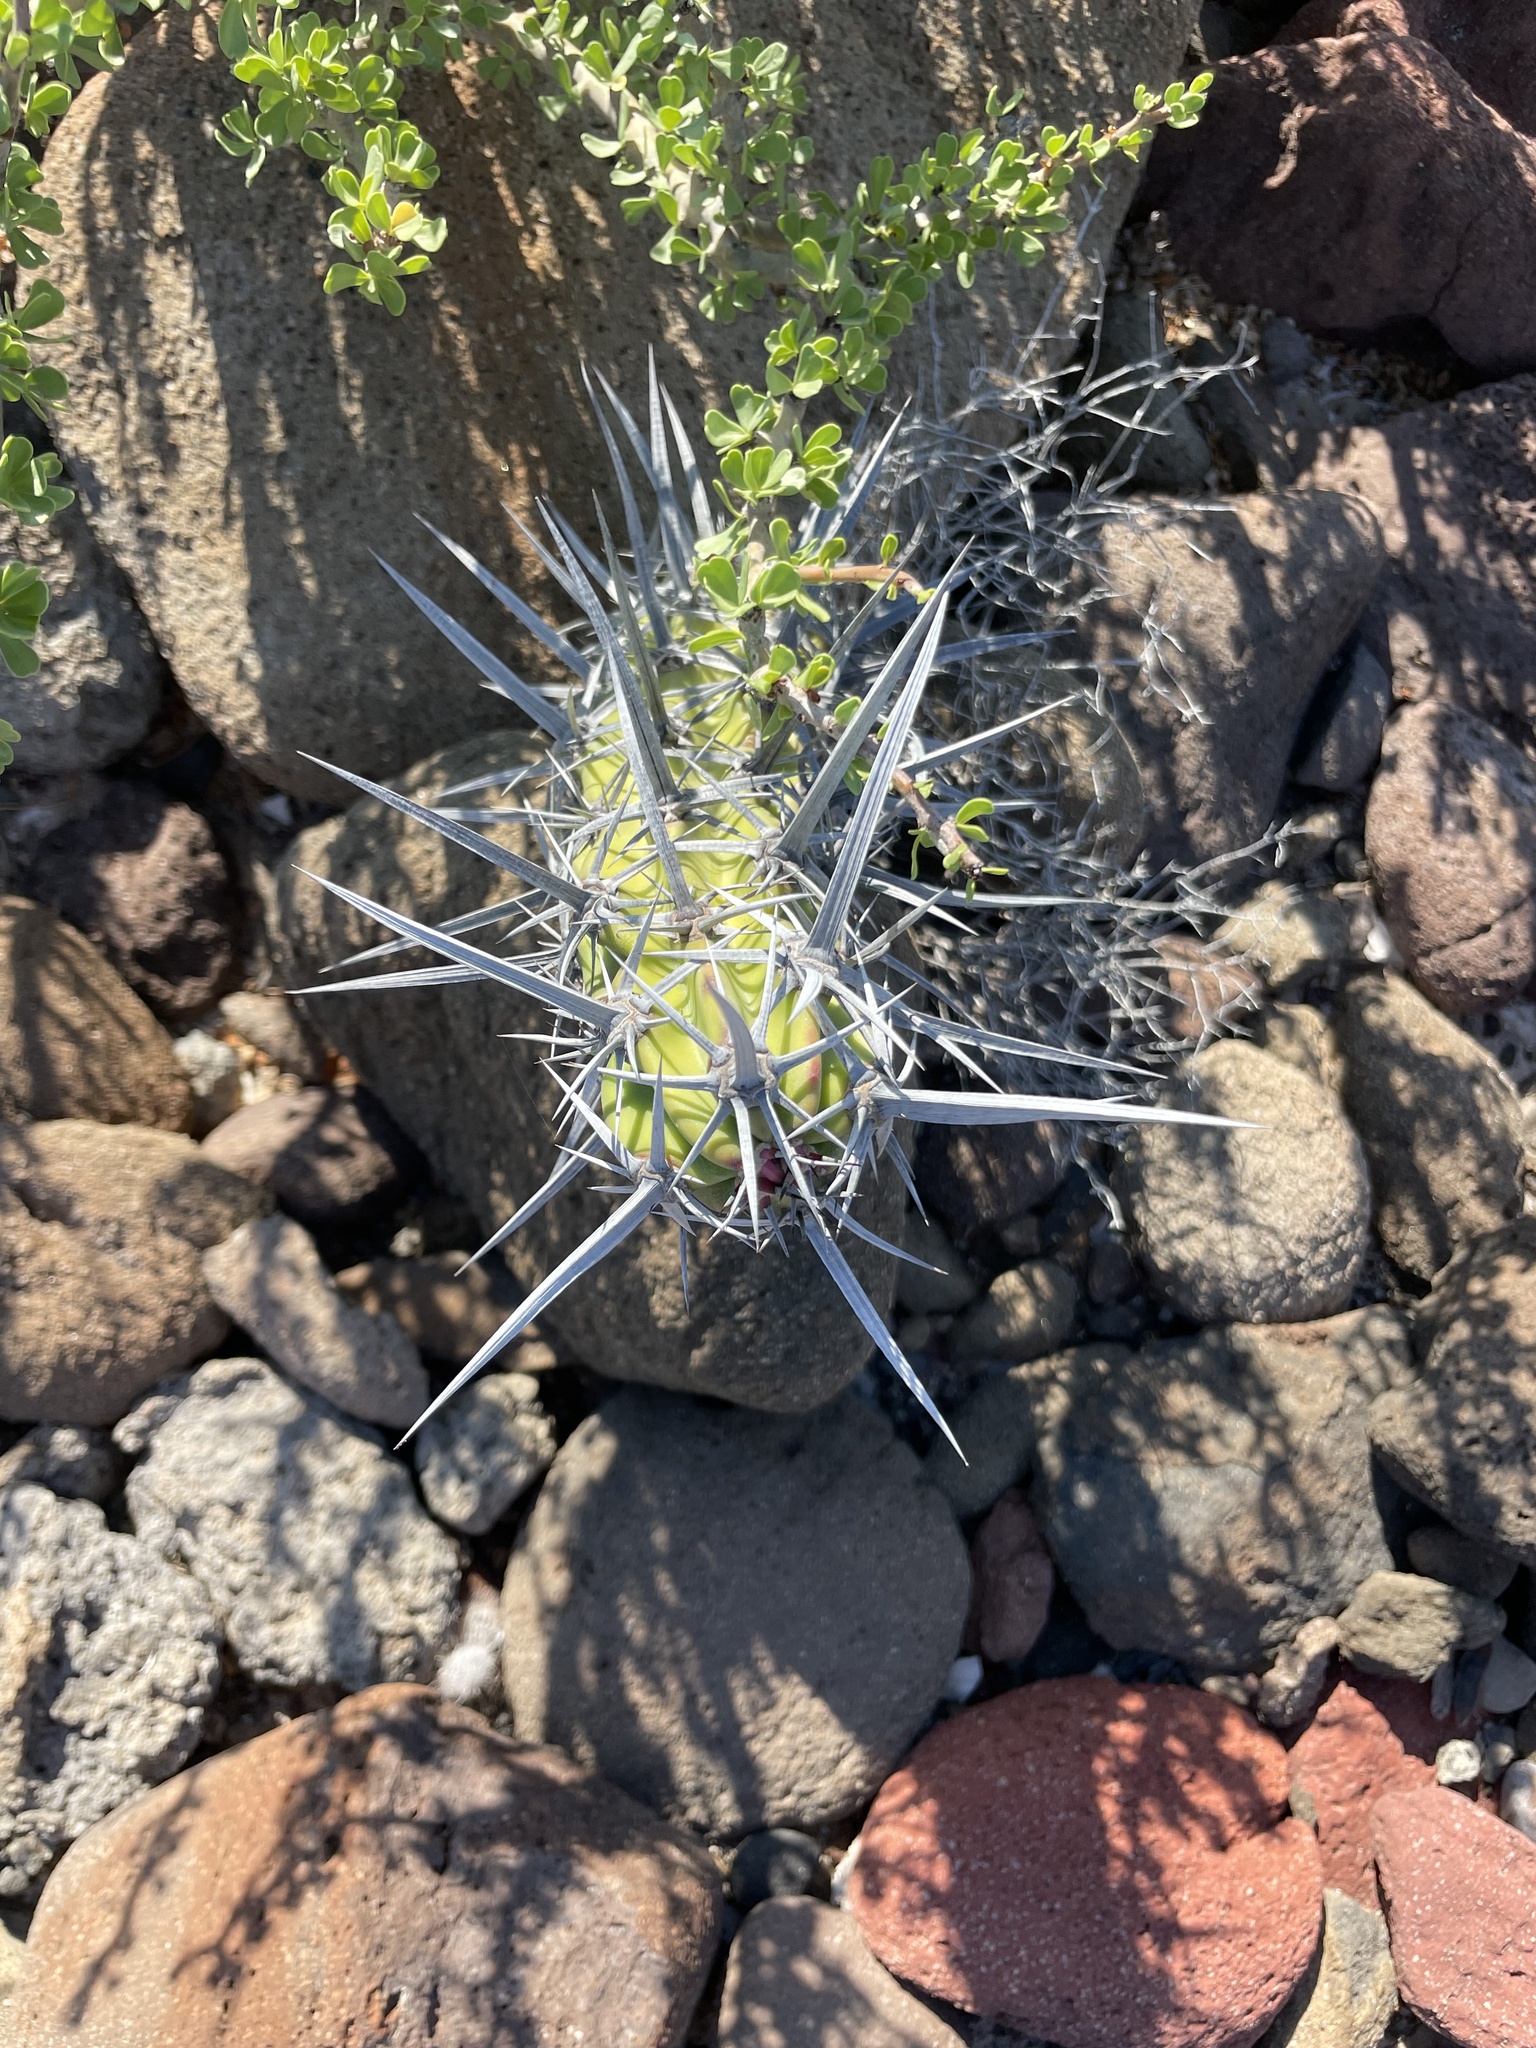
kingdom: Plantae
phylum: Tracheophyta
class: Magnoliopsida
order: Caryophyllales
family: Cactaceae
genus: Stenocereus
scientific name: Stenocereus gummosus
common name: Dagger cactus
